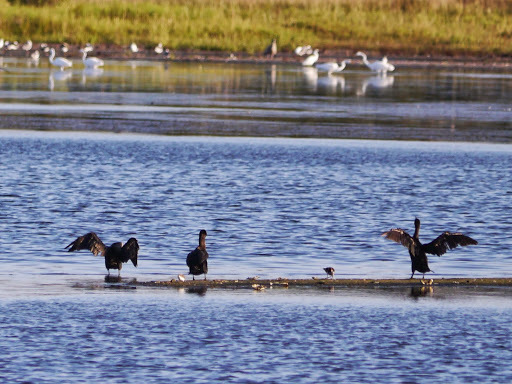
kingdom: Animalia
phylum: Chordata
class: Aves
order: Suliformes
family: Phalacrocoracidae
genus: Phalacrocorax
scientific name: Phalacrocorax auritus
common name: Double-crested cormorant
